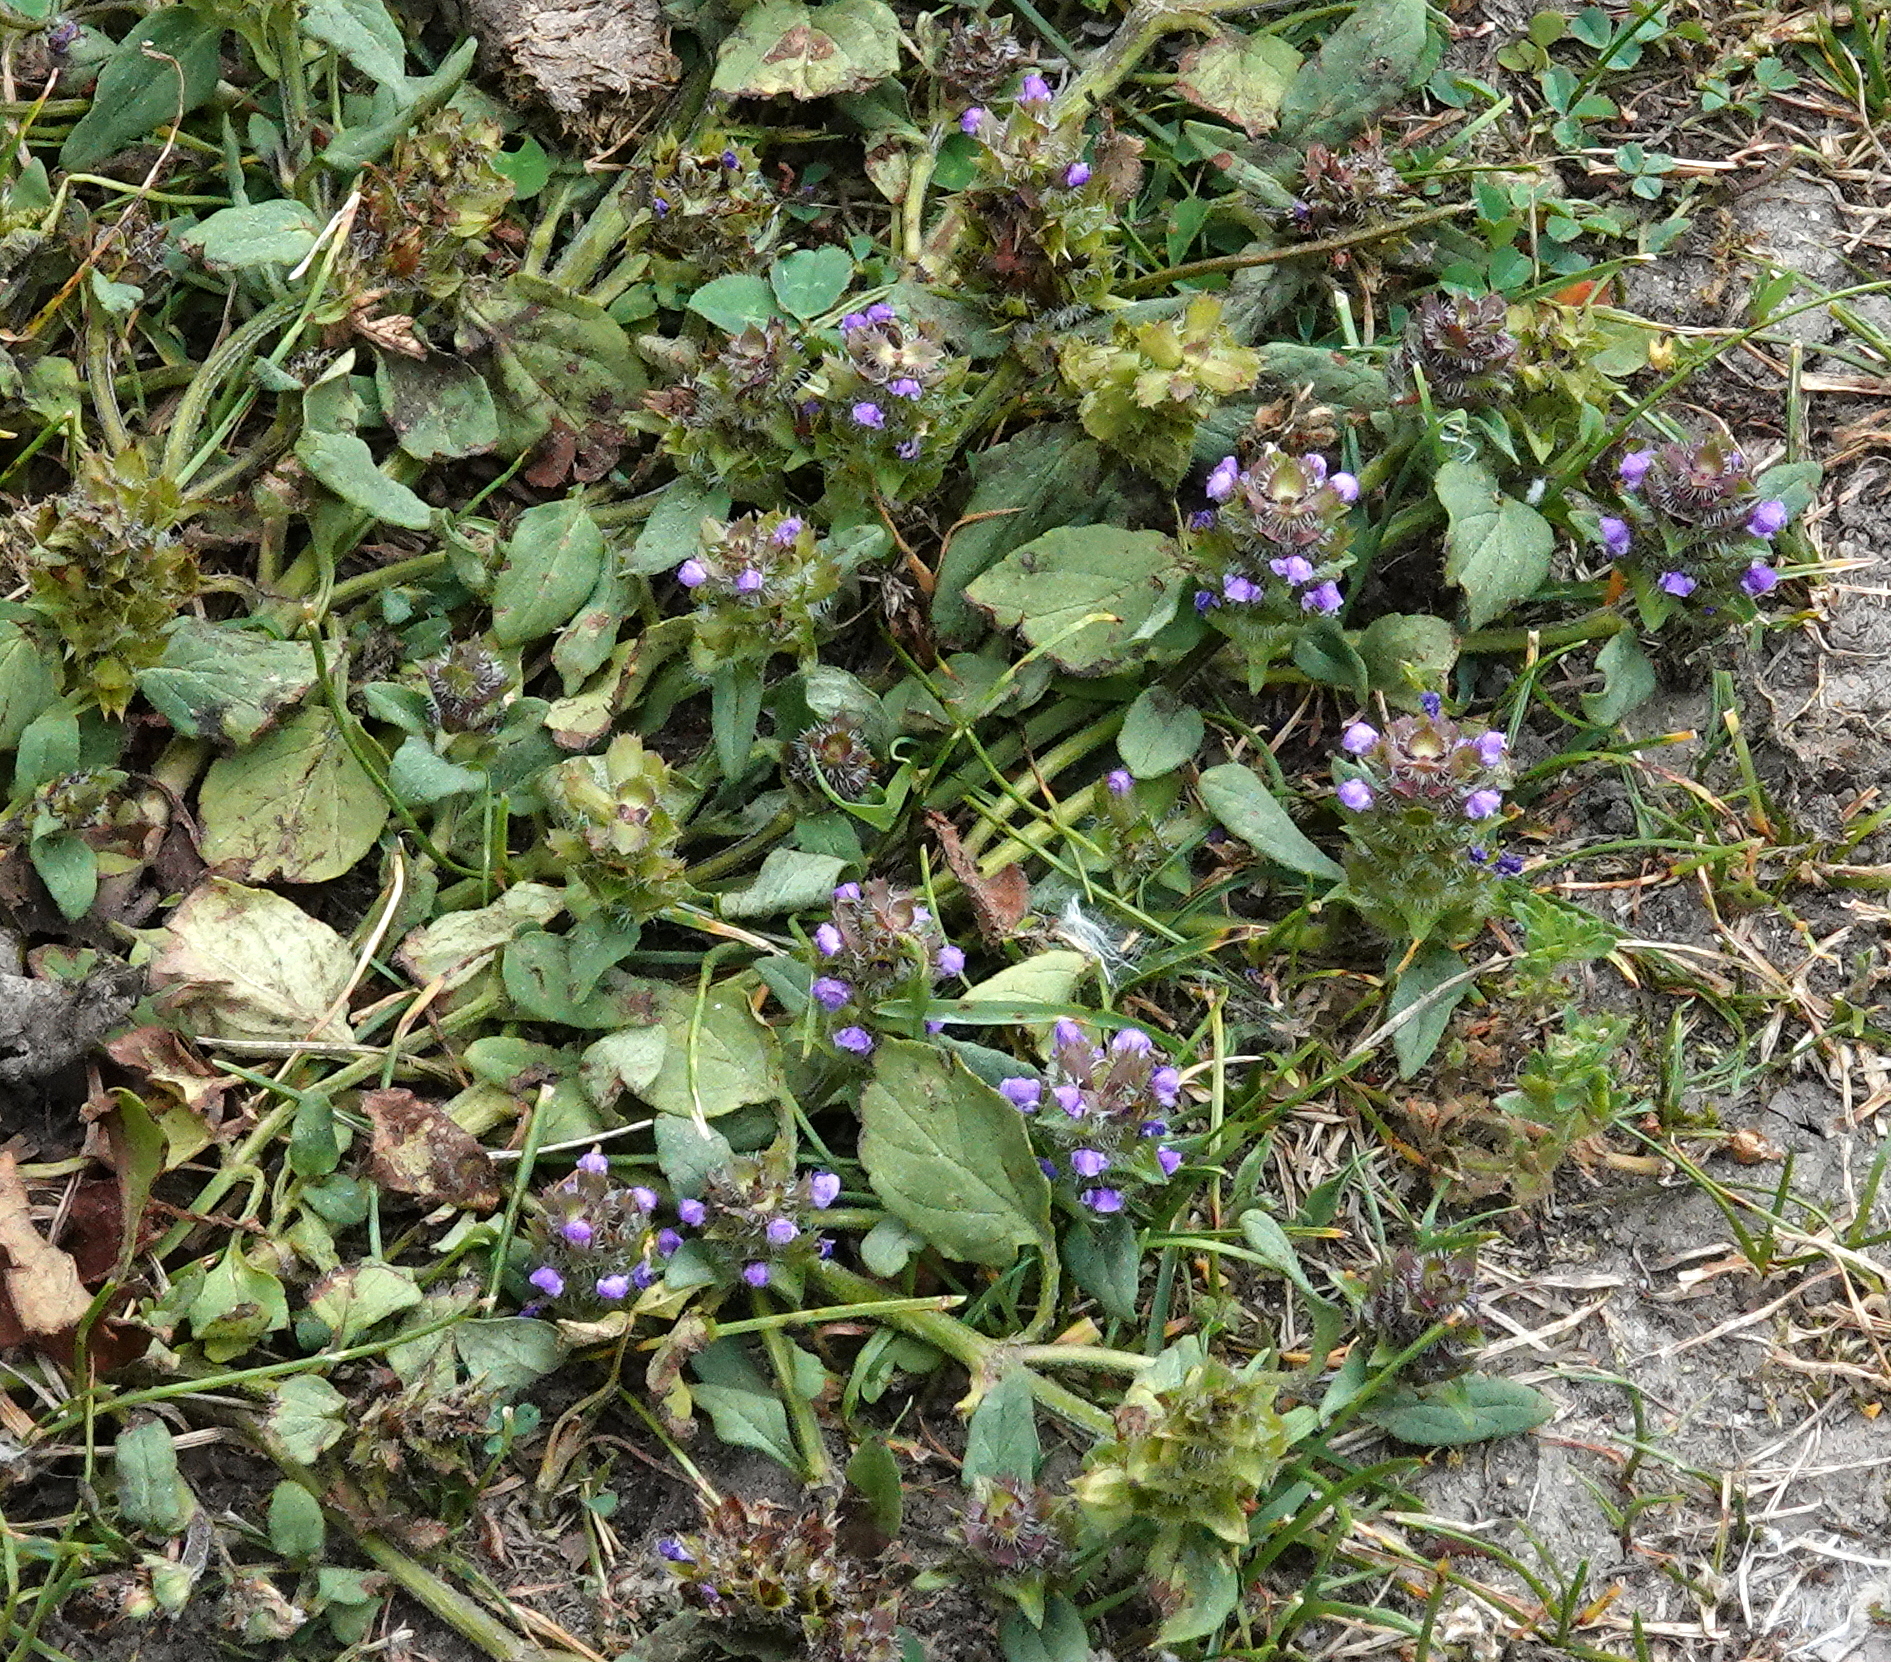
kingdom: Plantae
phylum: Tracheophyta
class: Magnoliopsida
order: Lamiales
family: Lamiaceae
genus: Prunella
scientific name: Prunella vulgaris
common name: Heal-all
